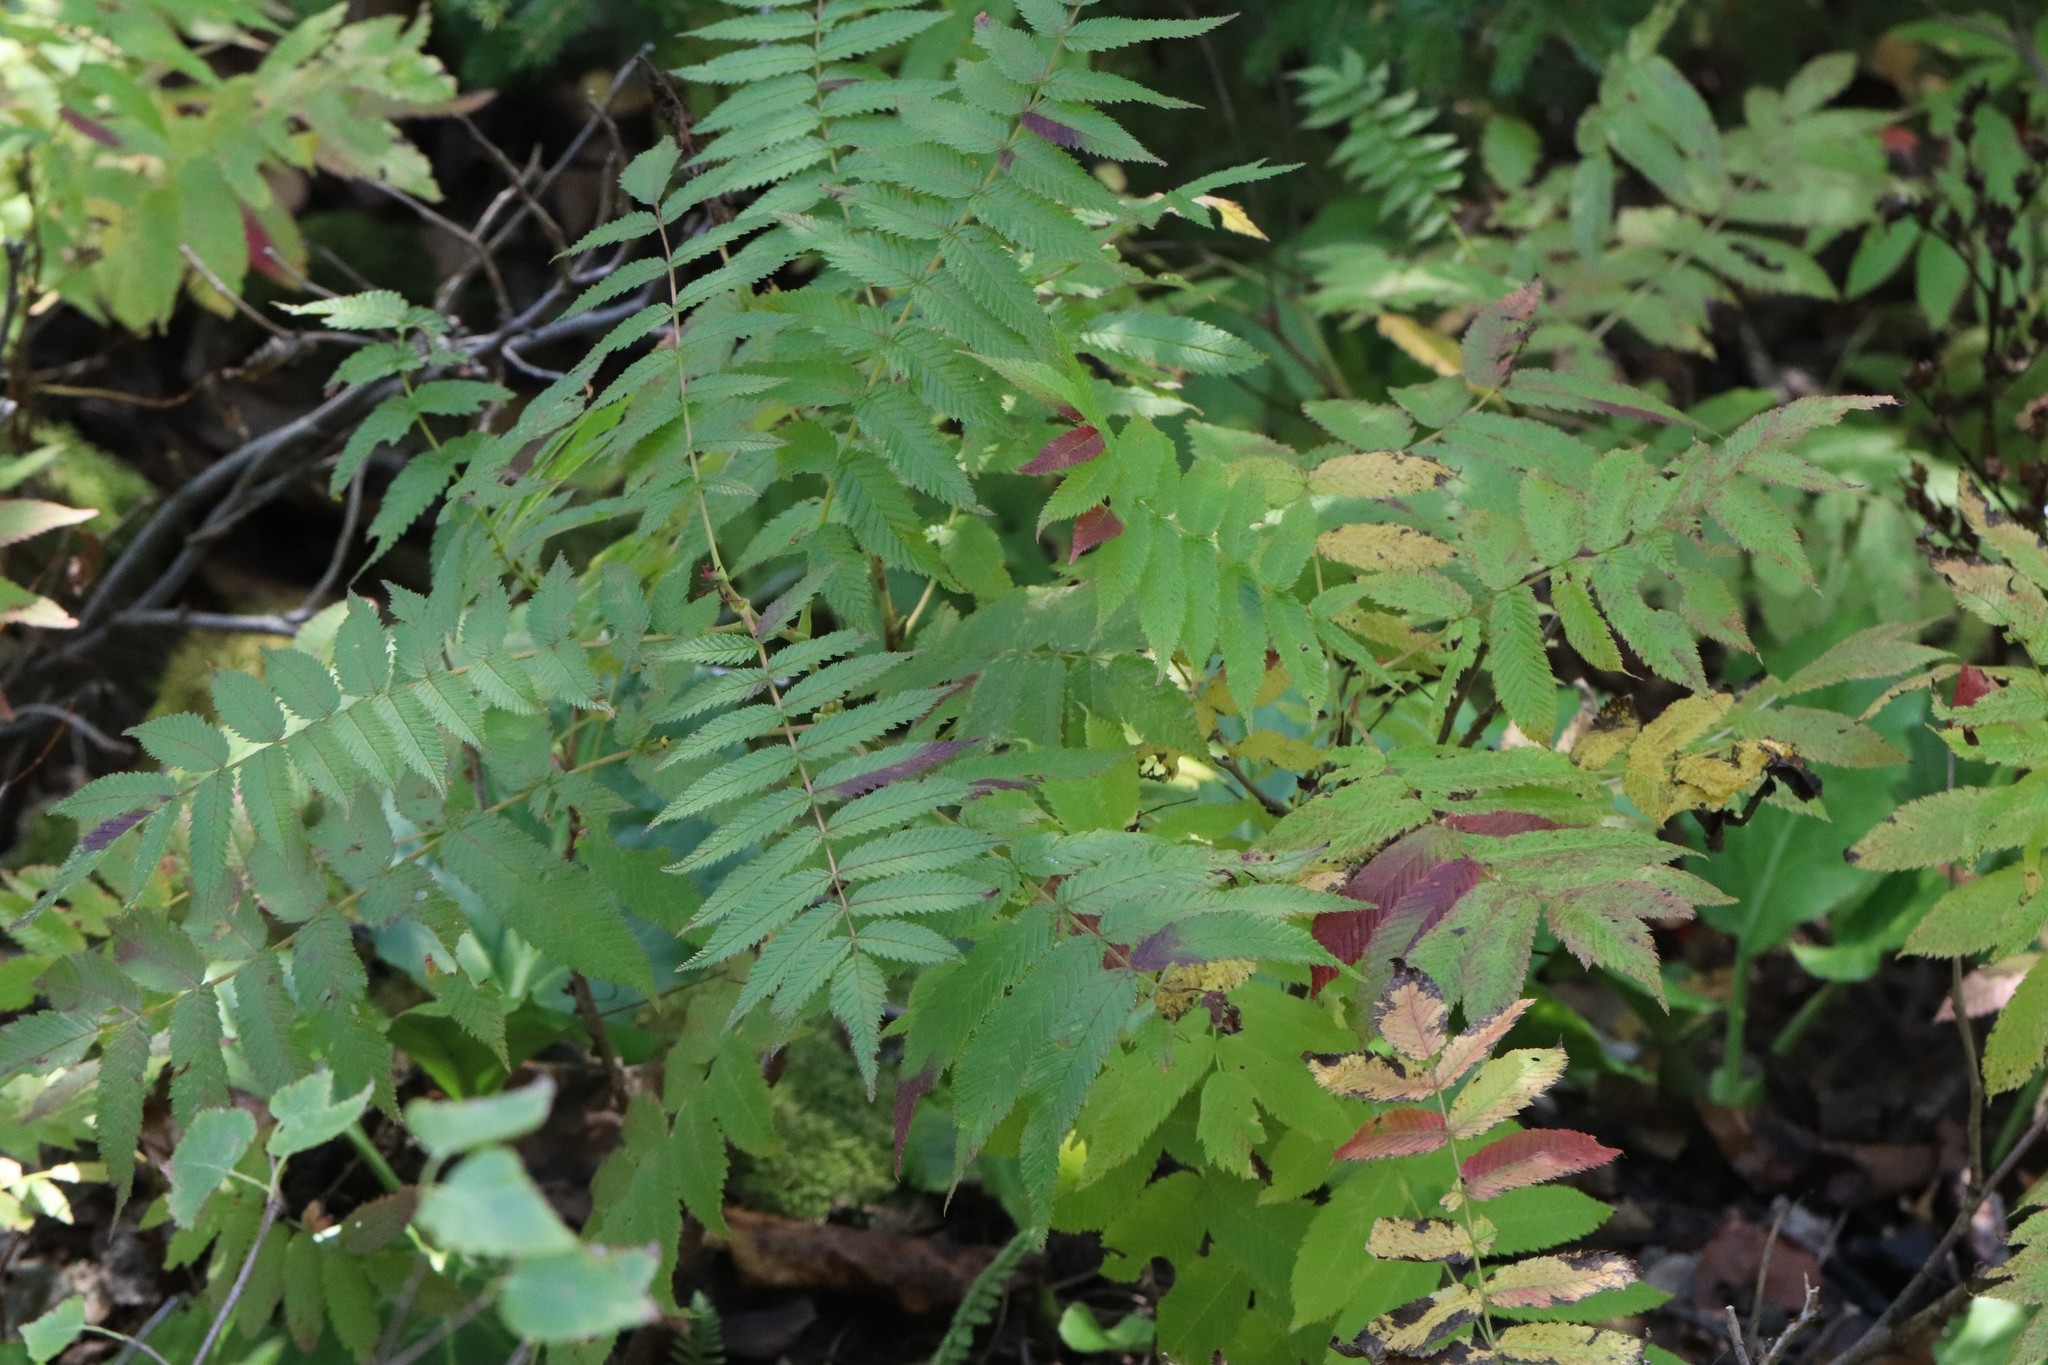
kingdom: Plantae
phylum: Tracheophyta
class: Magnoliopsida
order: Rosales
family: Rosaceae
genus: Sorbaria
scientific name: Sorbaria sorbifolia
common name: False spiraea
